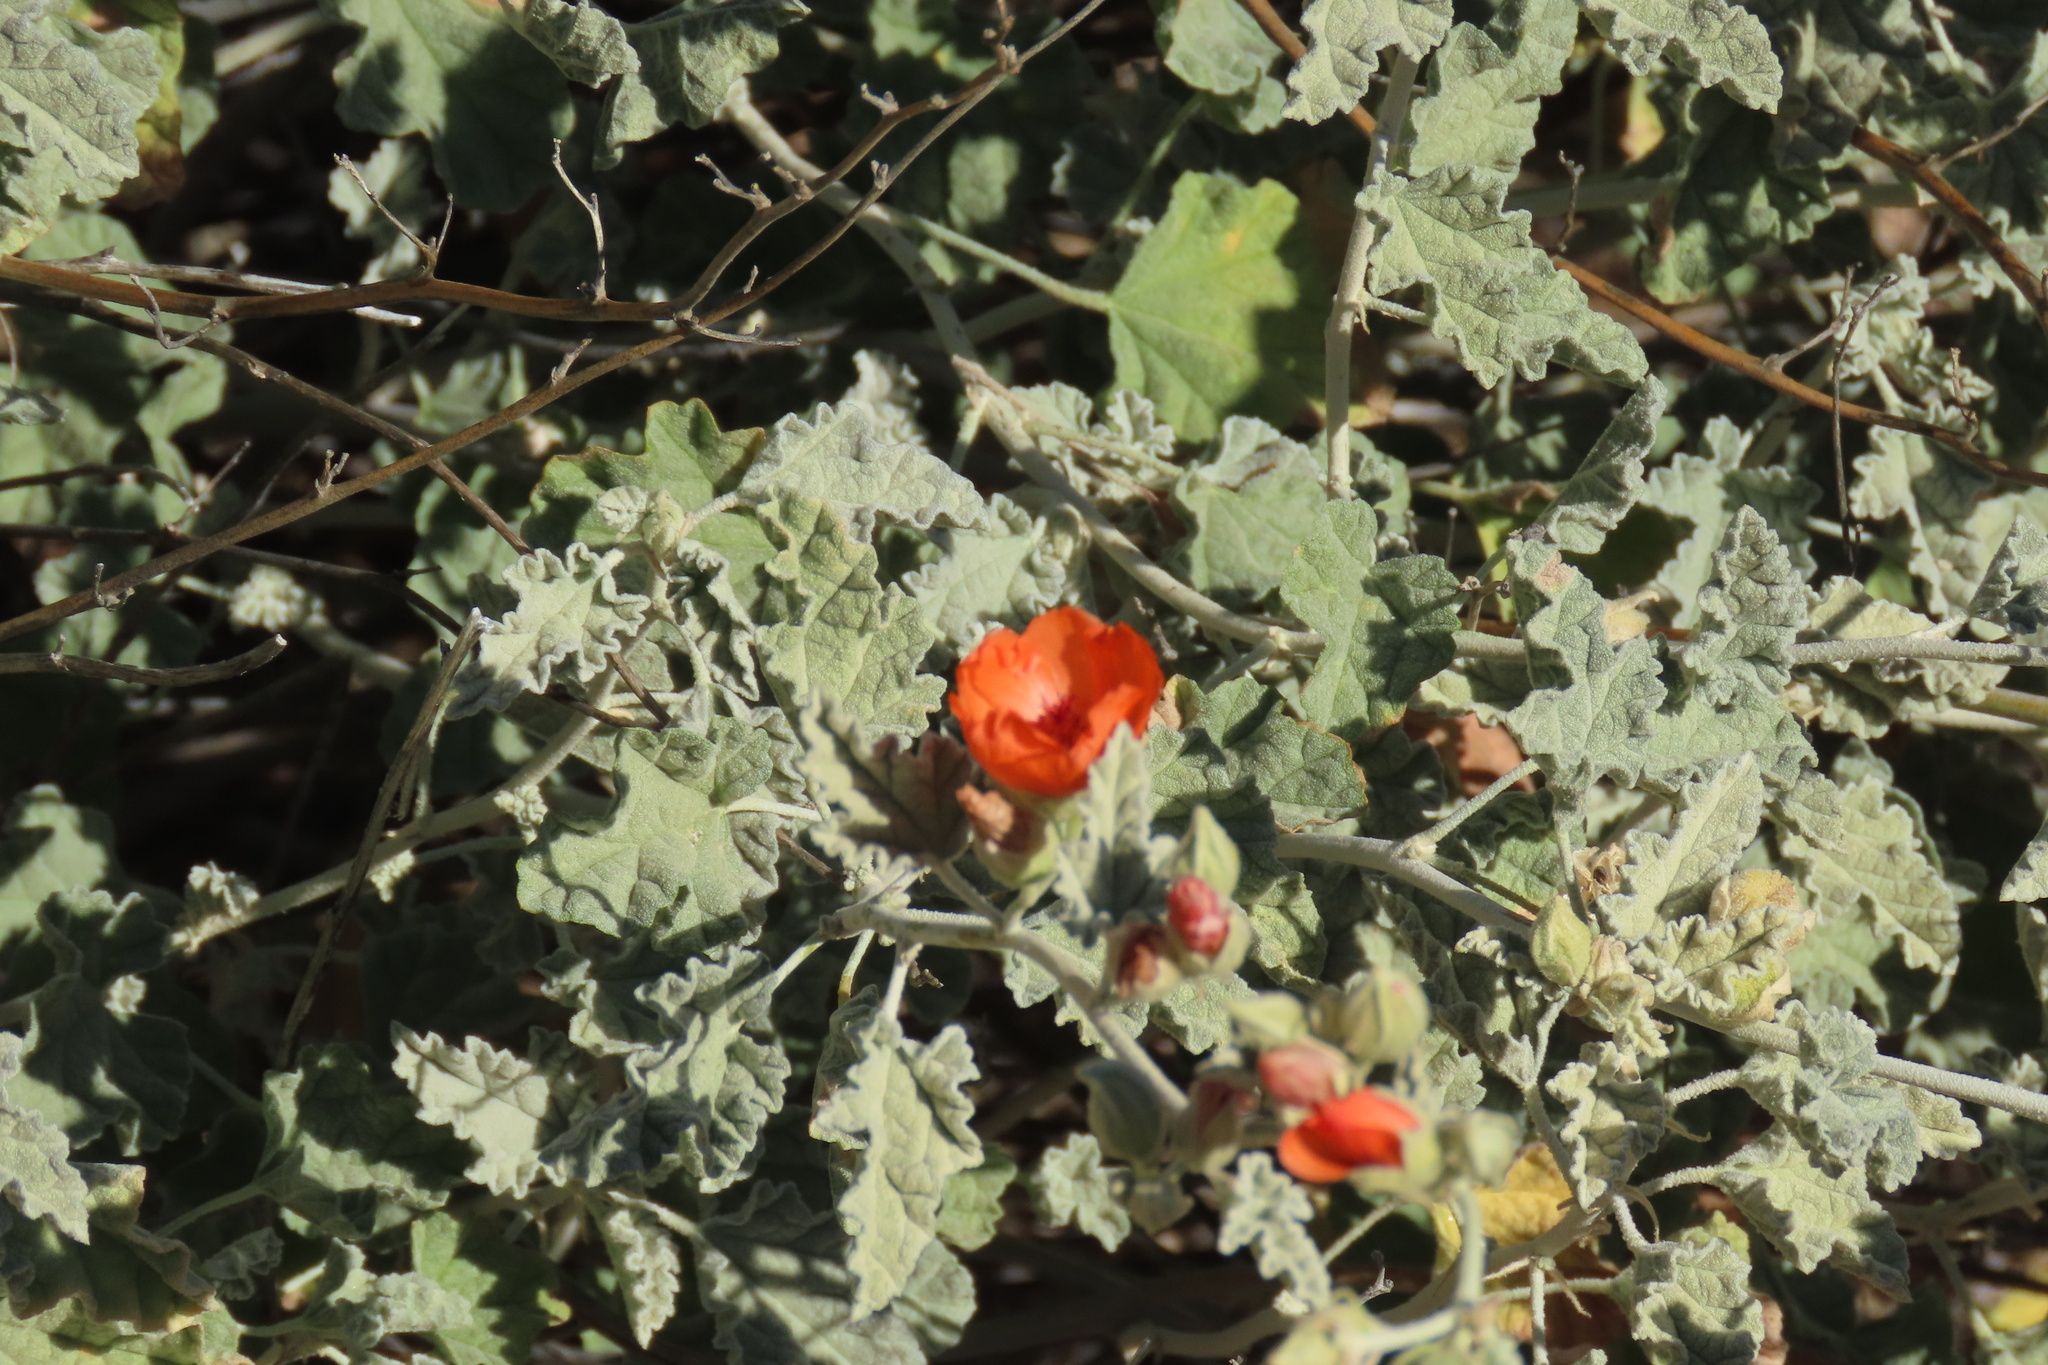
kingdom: Plantae
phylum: Tracheophyta
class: Magnoliopsida
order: Malvales
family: Malvaceae
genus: Sphaeralcea
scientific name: Sphaeralcea ambigua
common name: Apricot globe-mallow
